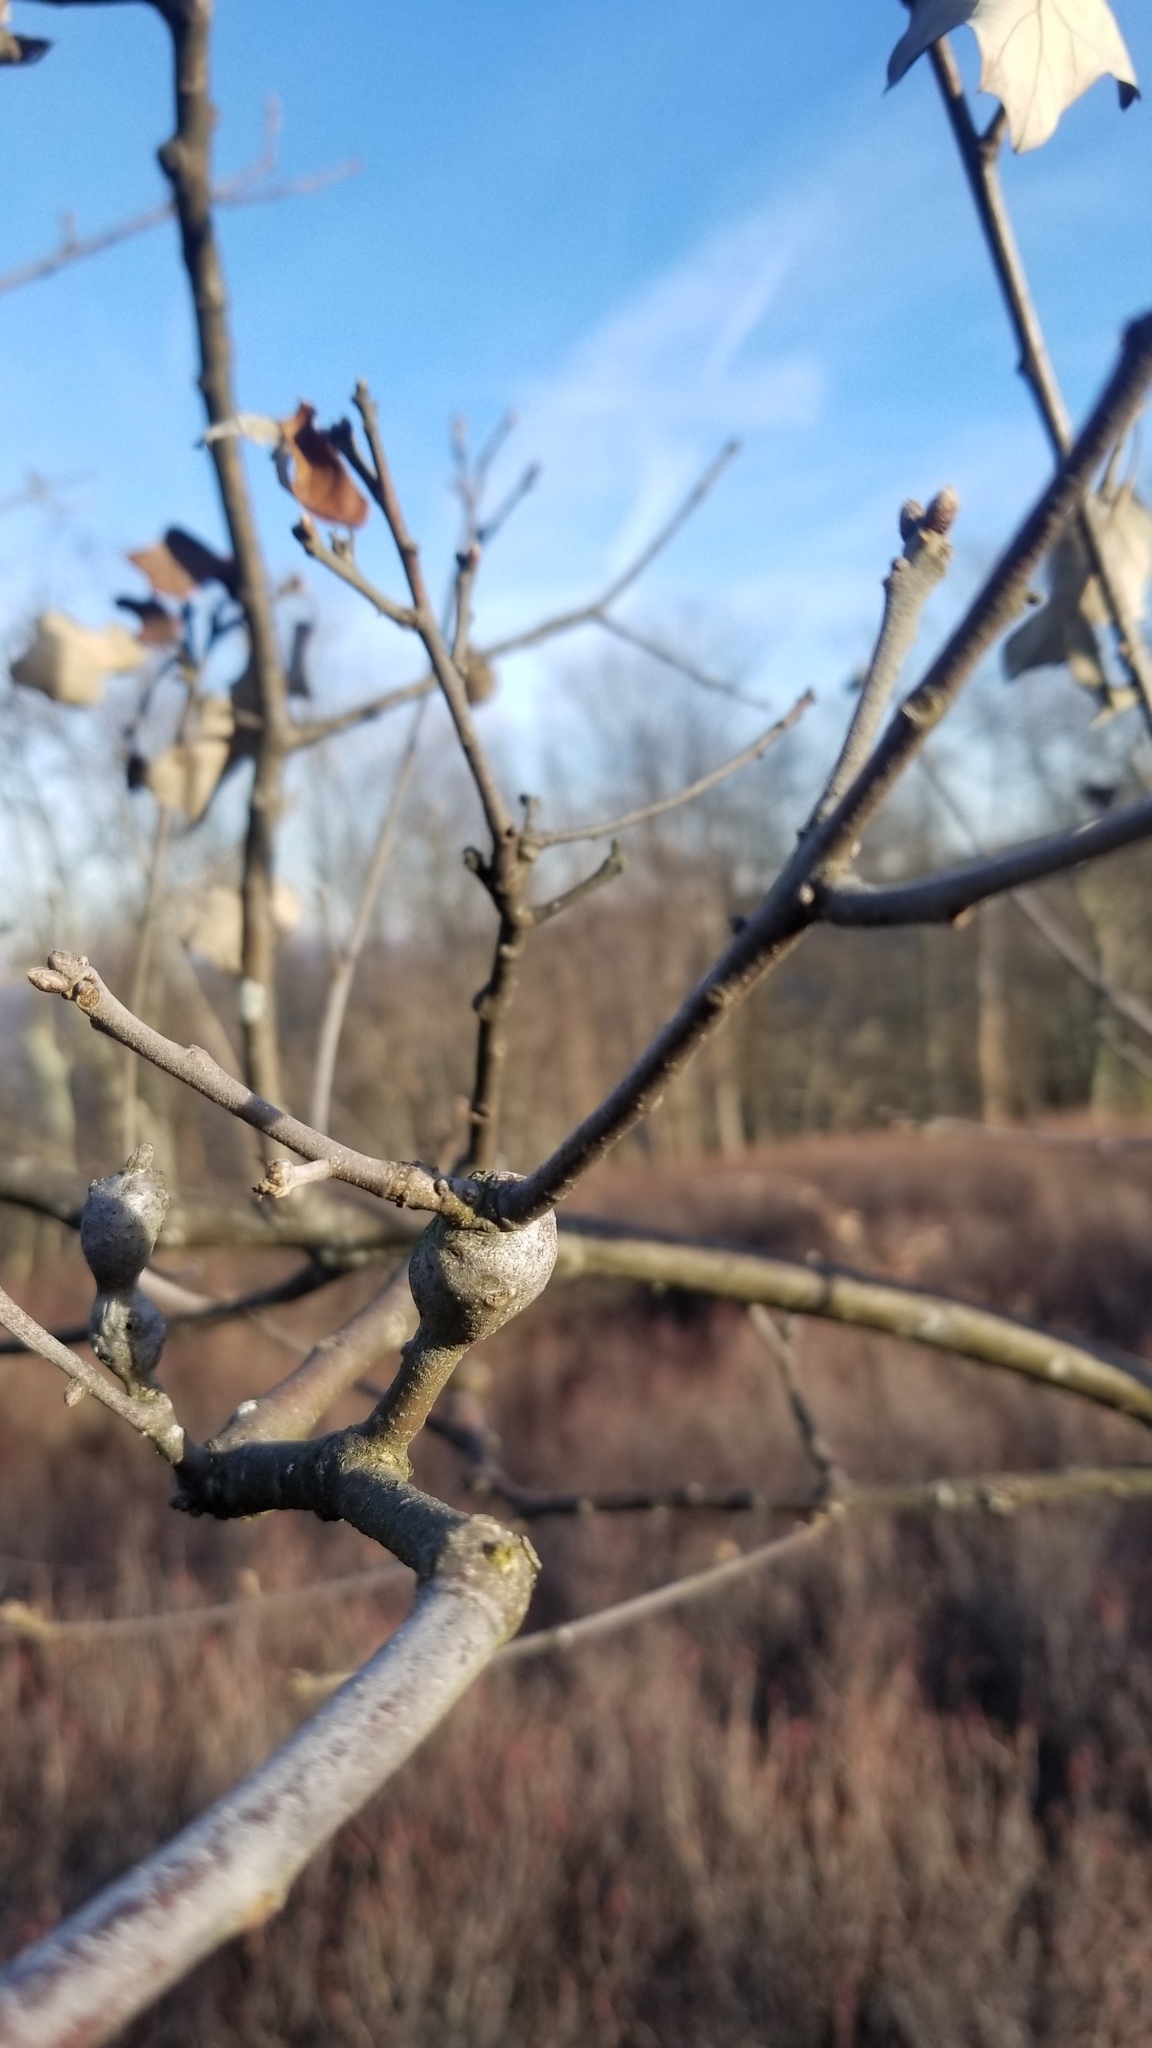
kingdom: Animalia
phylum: Arthropoda
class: Insecta
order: Hymenoptera
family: Cynipidae
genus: Zapatella
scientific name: Zapatella quercusphellos
